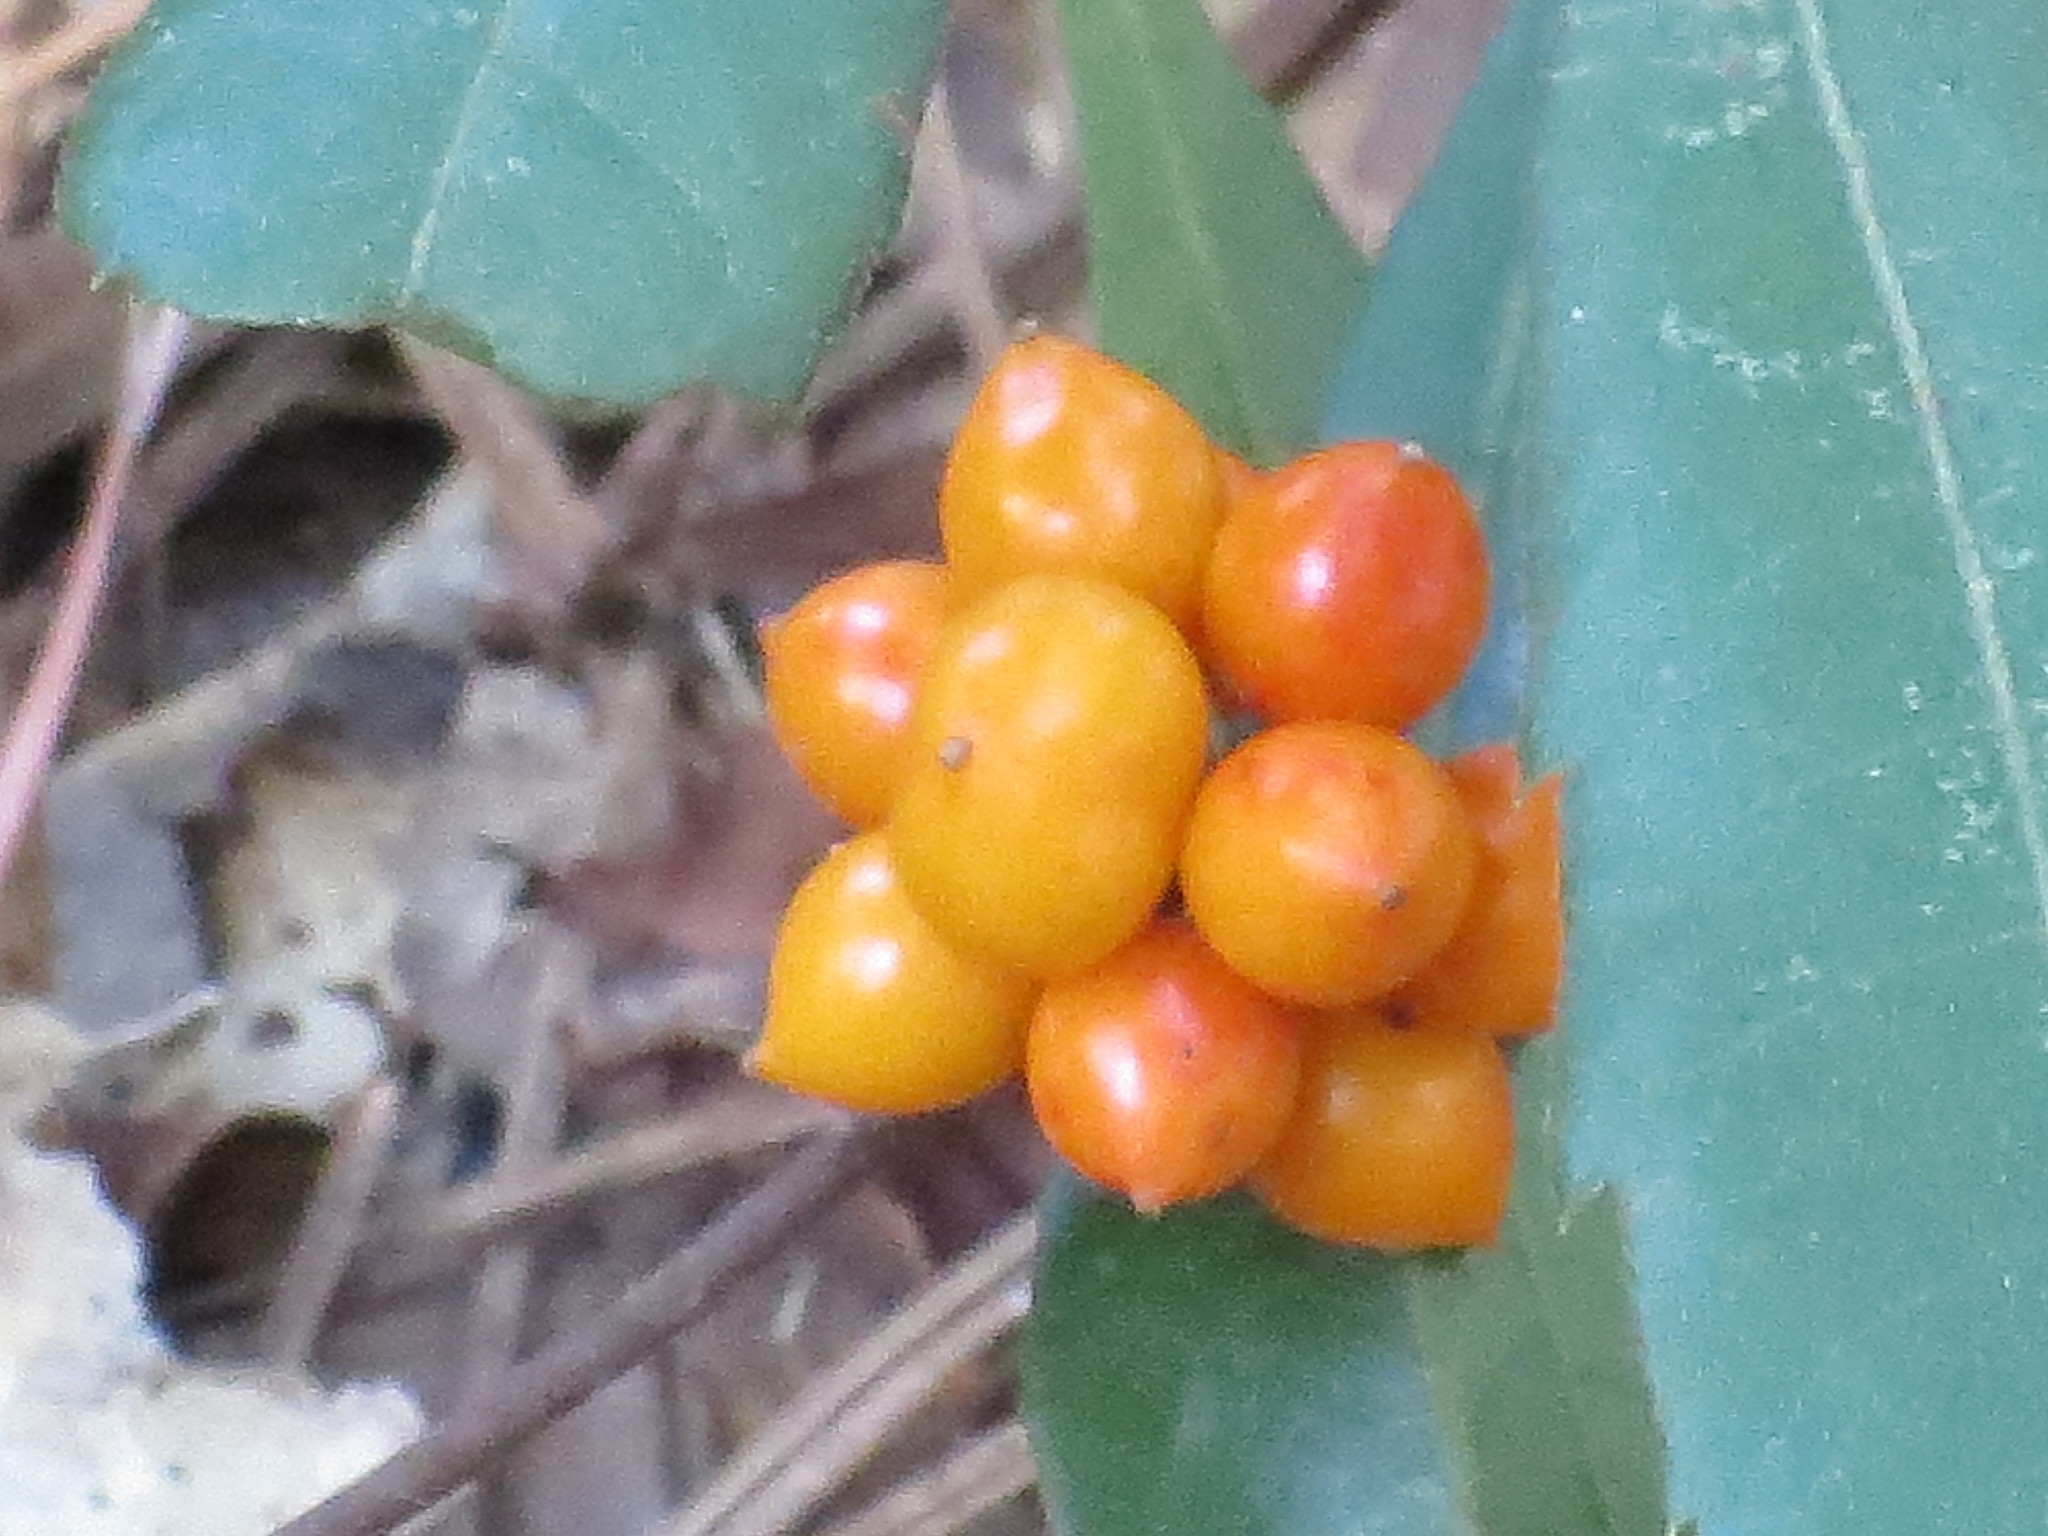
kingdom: Plantae
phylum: Tracheophyta
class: Liliopsida
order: Liliales
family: Smilacaceae
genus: Smilax
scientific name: Smilax pumila
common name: Sarsaparilla-vine
